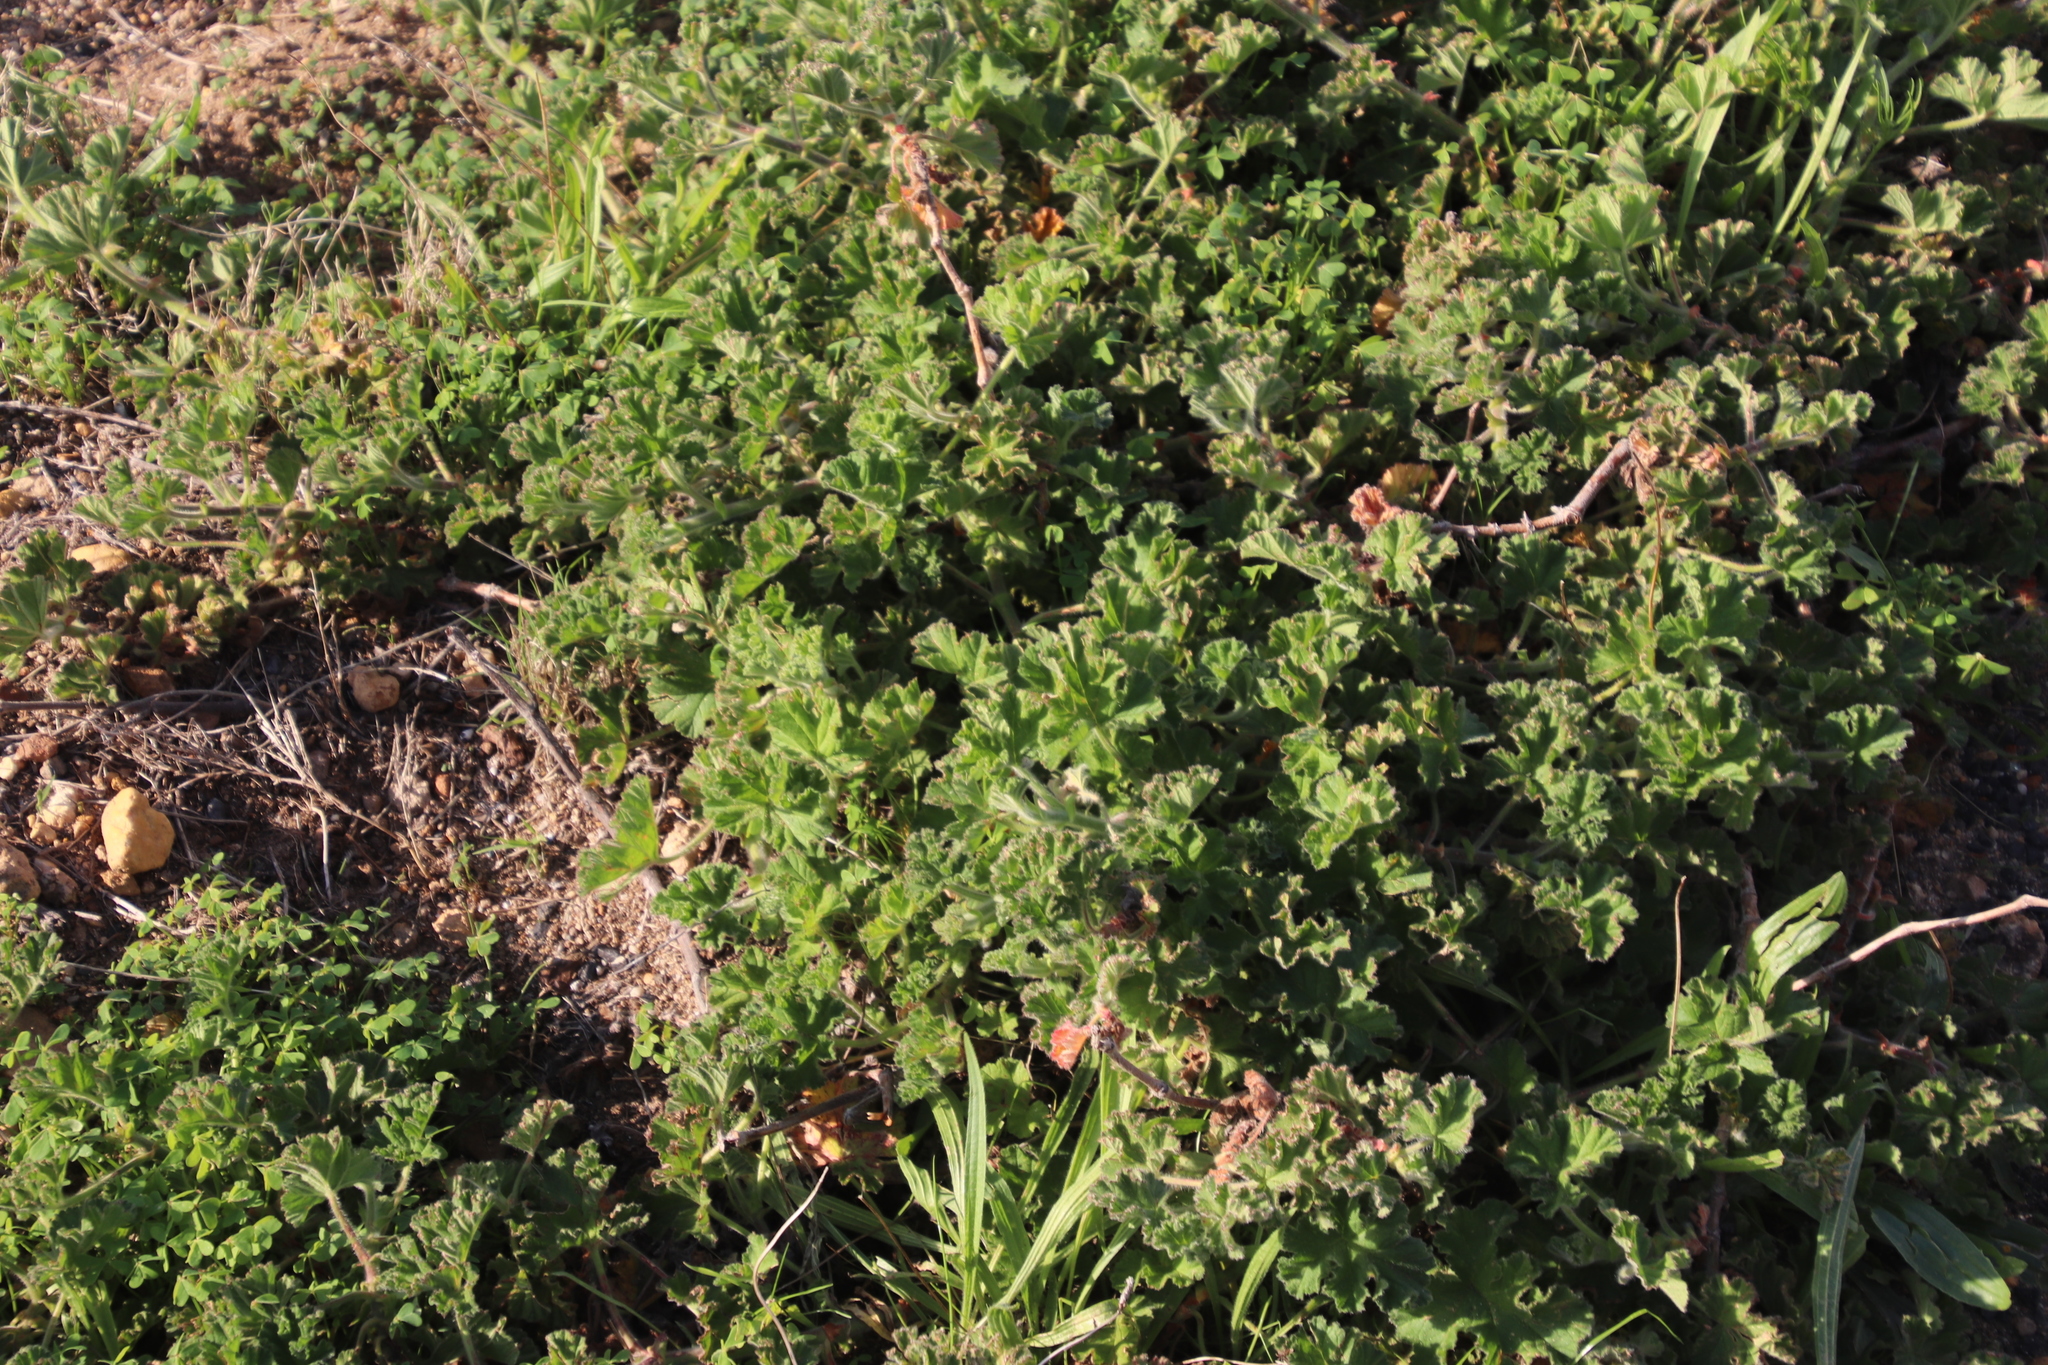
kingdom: Plantae
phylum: Tracheophyta
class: Magnoliopsida
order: Geraniales
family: Geraniaceae
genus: Pelargonium
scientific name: Pelargonium capitatum
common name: Rose scented geranium
